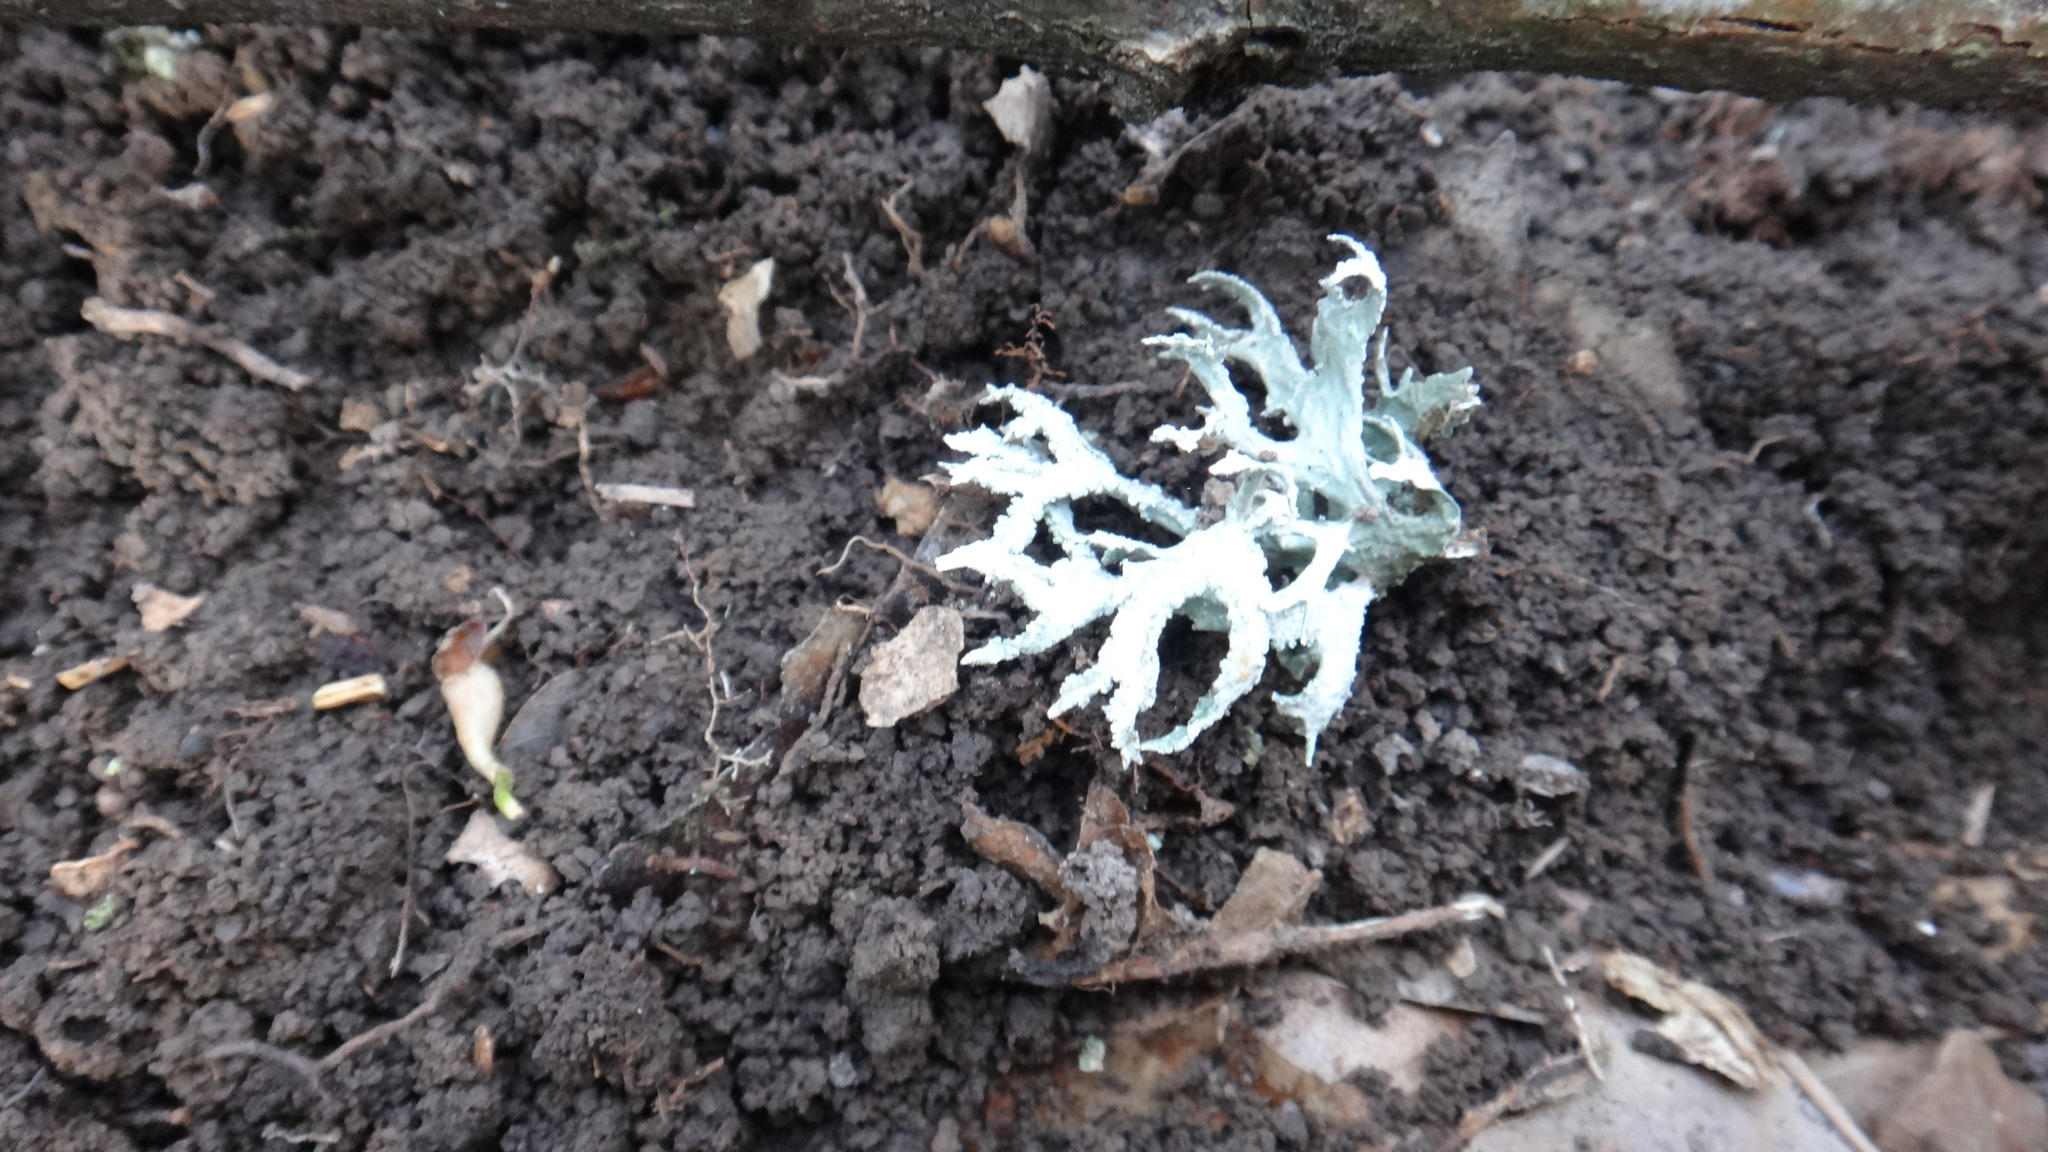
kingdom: Fungi
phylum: Ascomycota
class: Lecanoromycetes
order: Lecanorales
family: Parmeliaceae
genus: Evernia
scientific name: Evernia prunastri
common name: Oak moss
